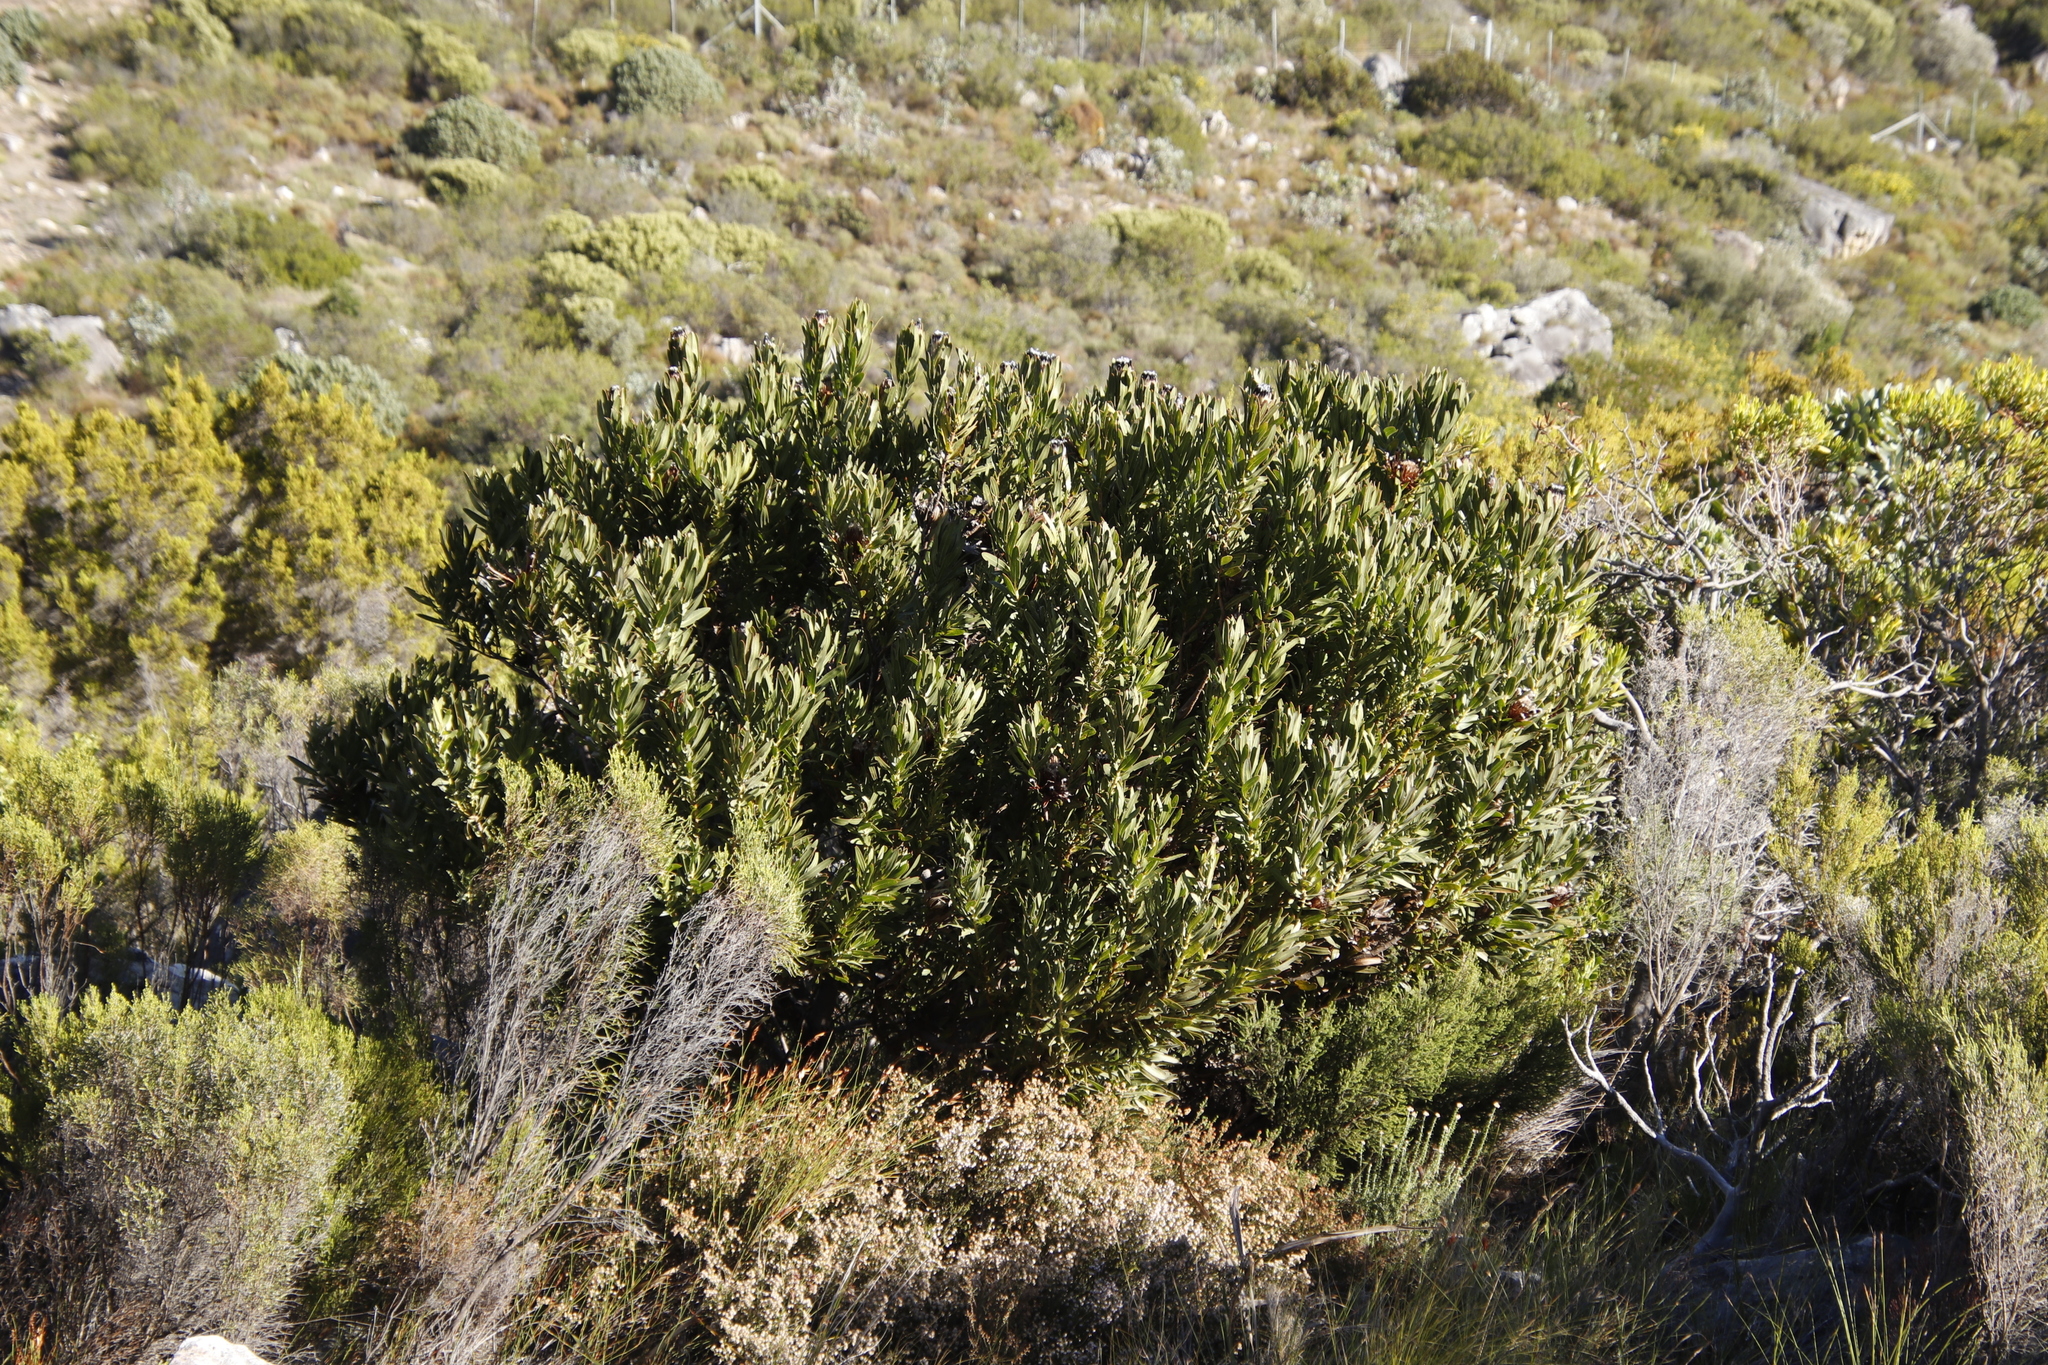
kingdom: Plantae
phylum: Tracheophyta
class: Magnoliopsida
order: Proteales
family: Proteaceae
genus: Protea
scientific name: Protea lepidocarpodendron
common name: Black-bearded protea
